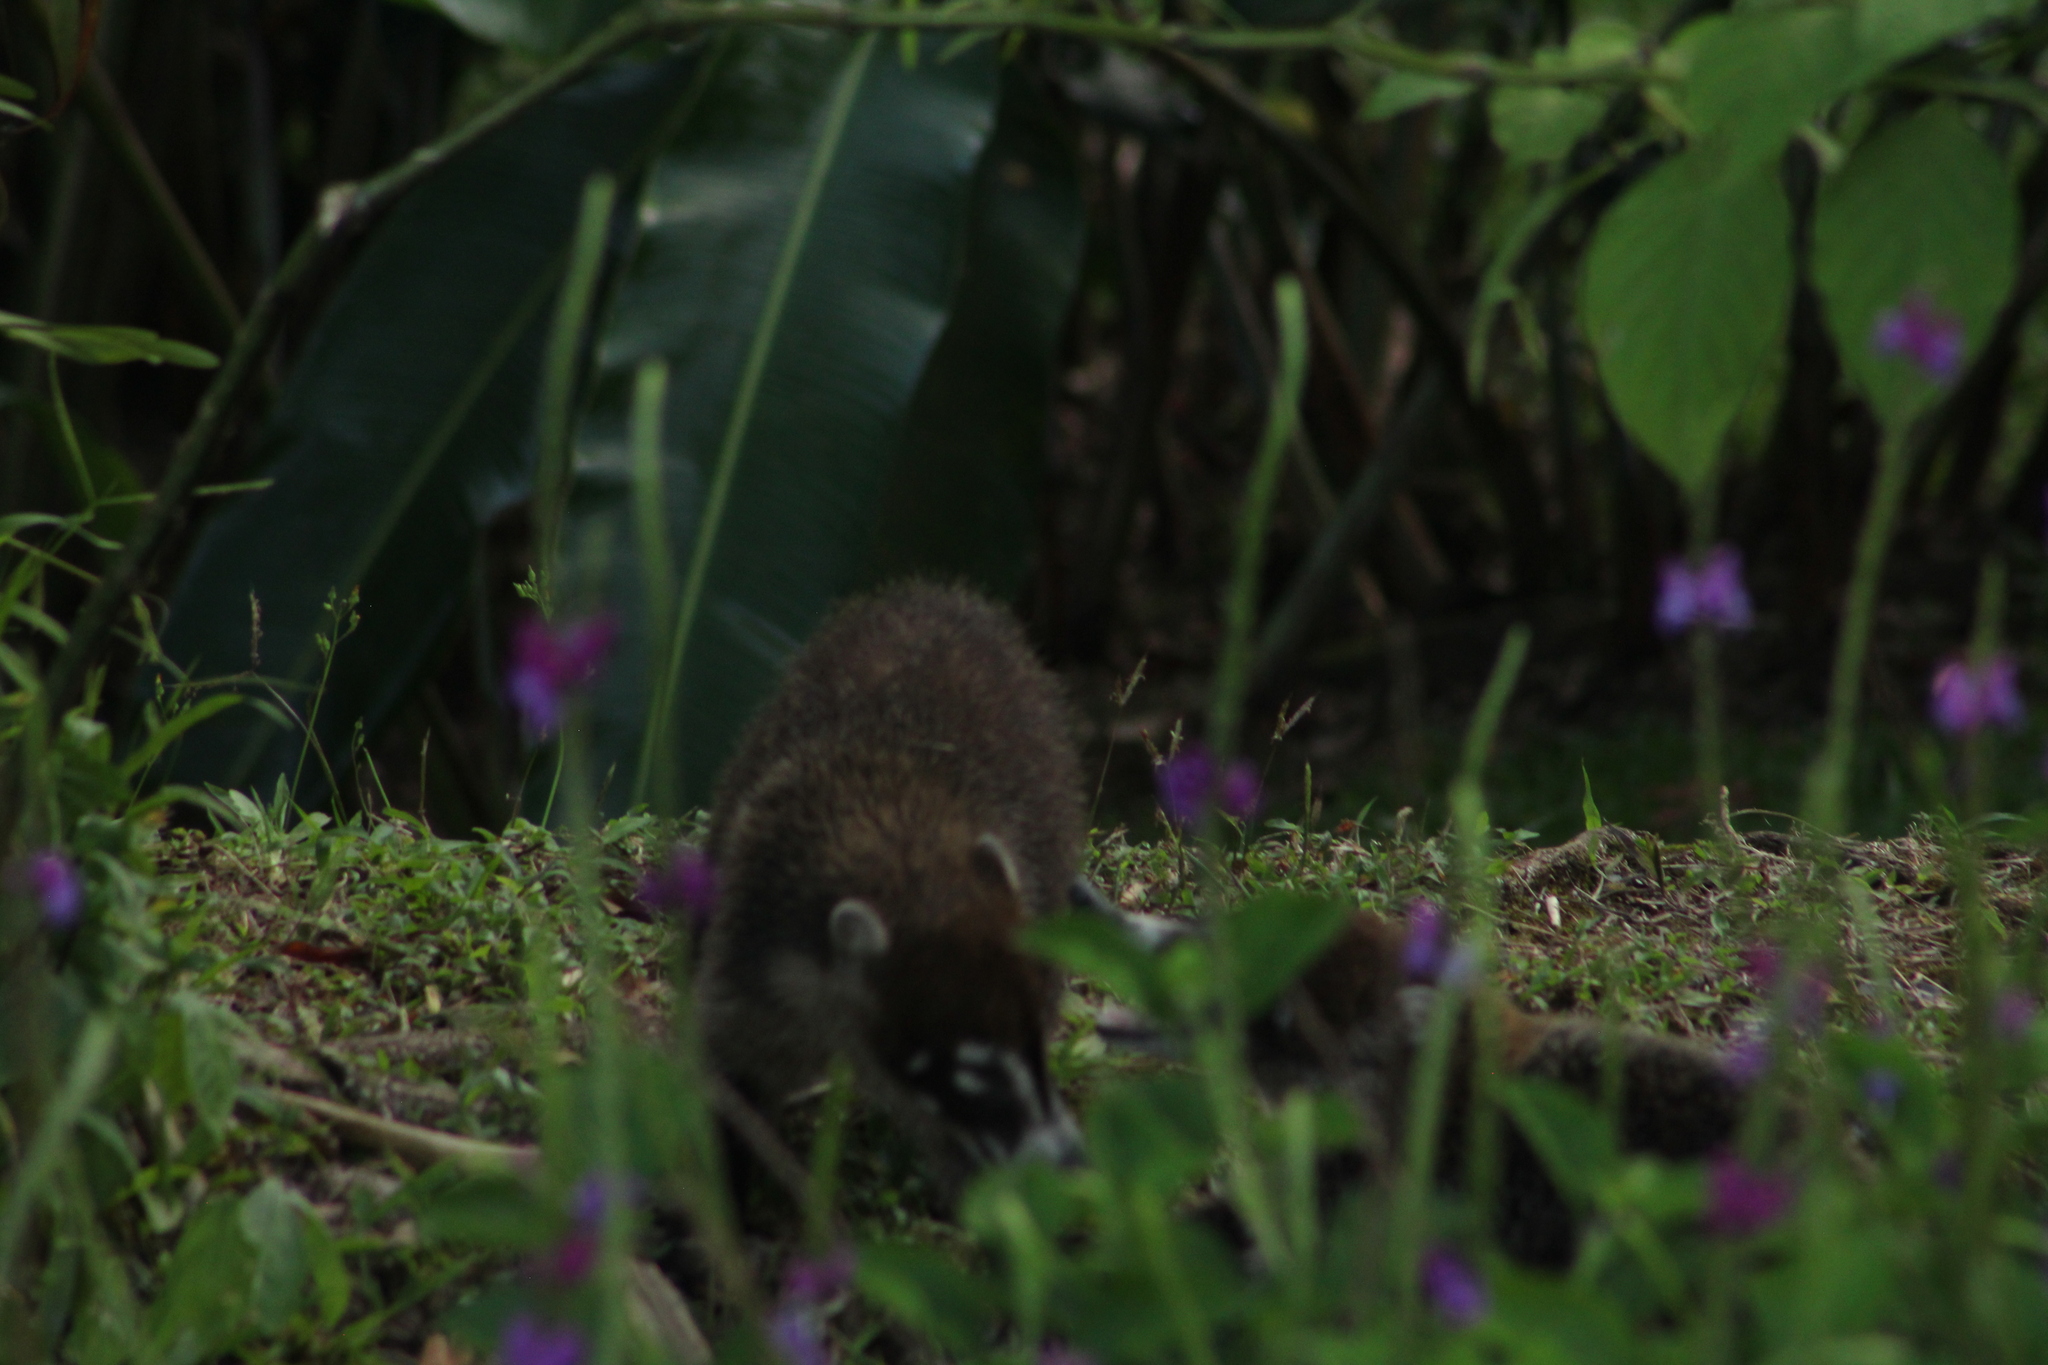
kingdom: Animalia
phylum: Chordata
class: Mammalia
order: Carnivora
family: Procyonidae
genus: Nasua
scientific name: Nasua narica
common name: White-nosed coati
